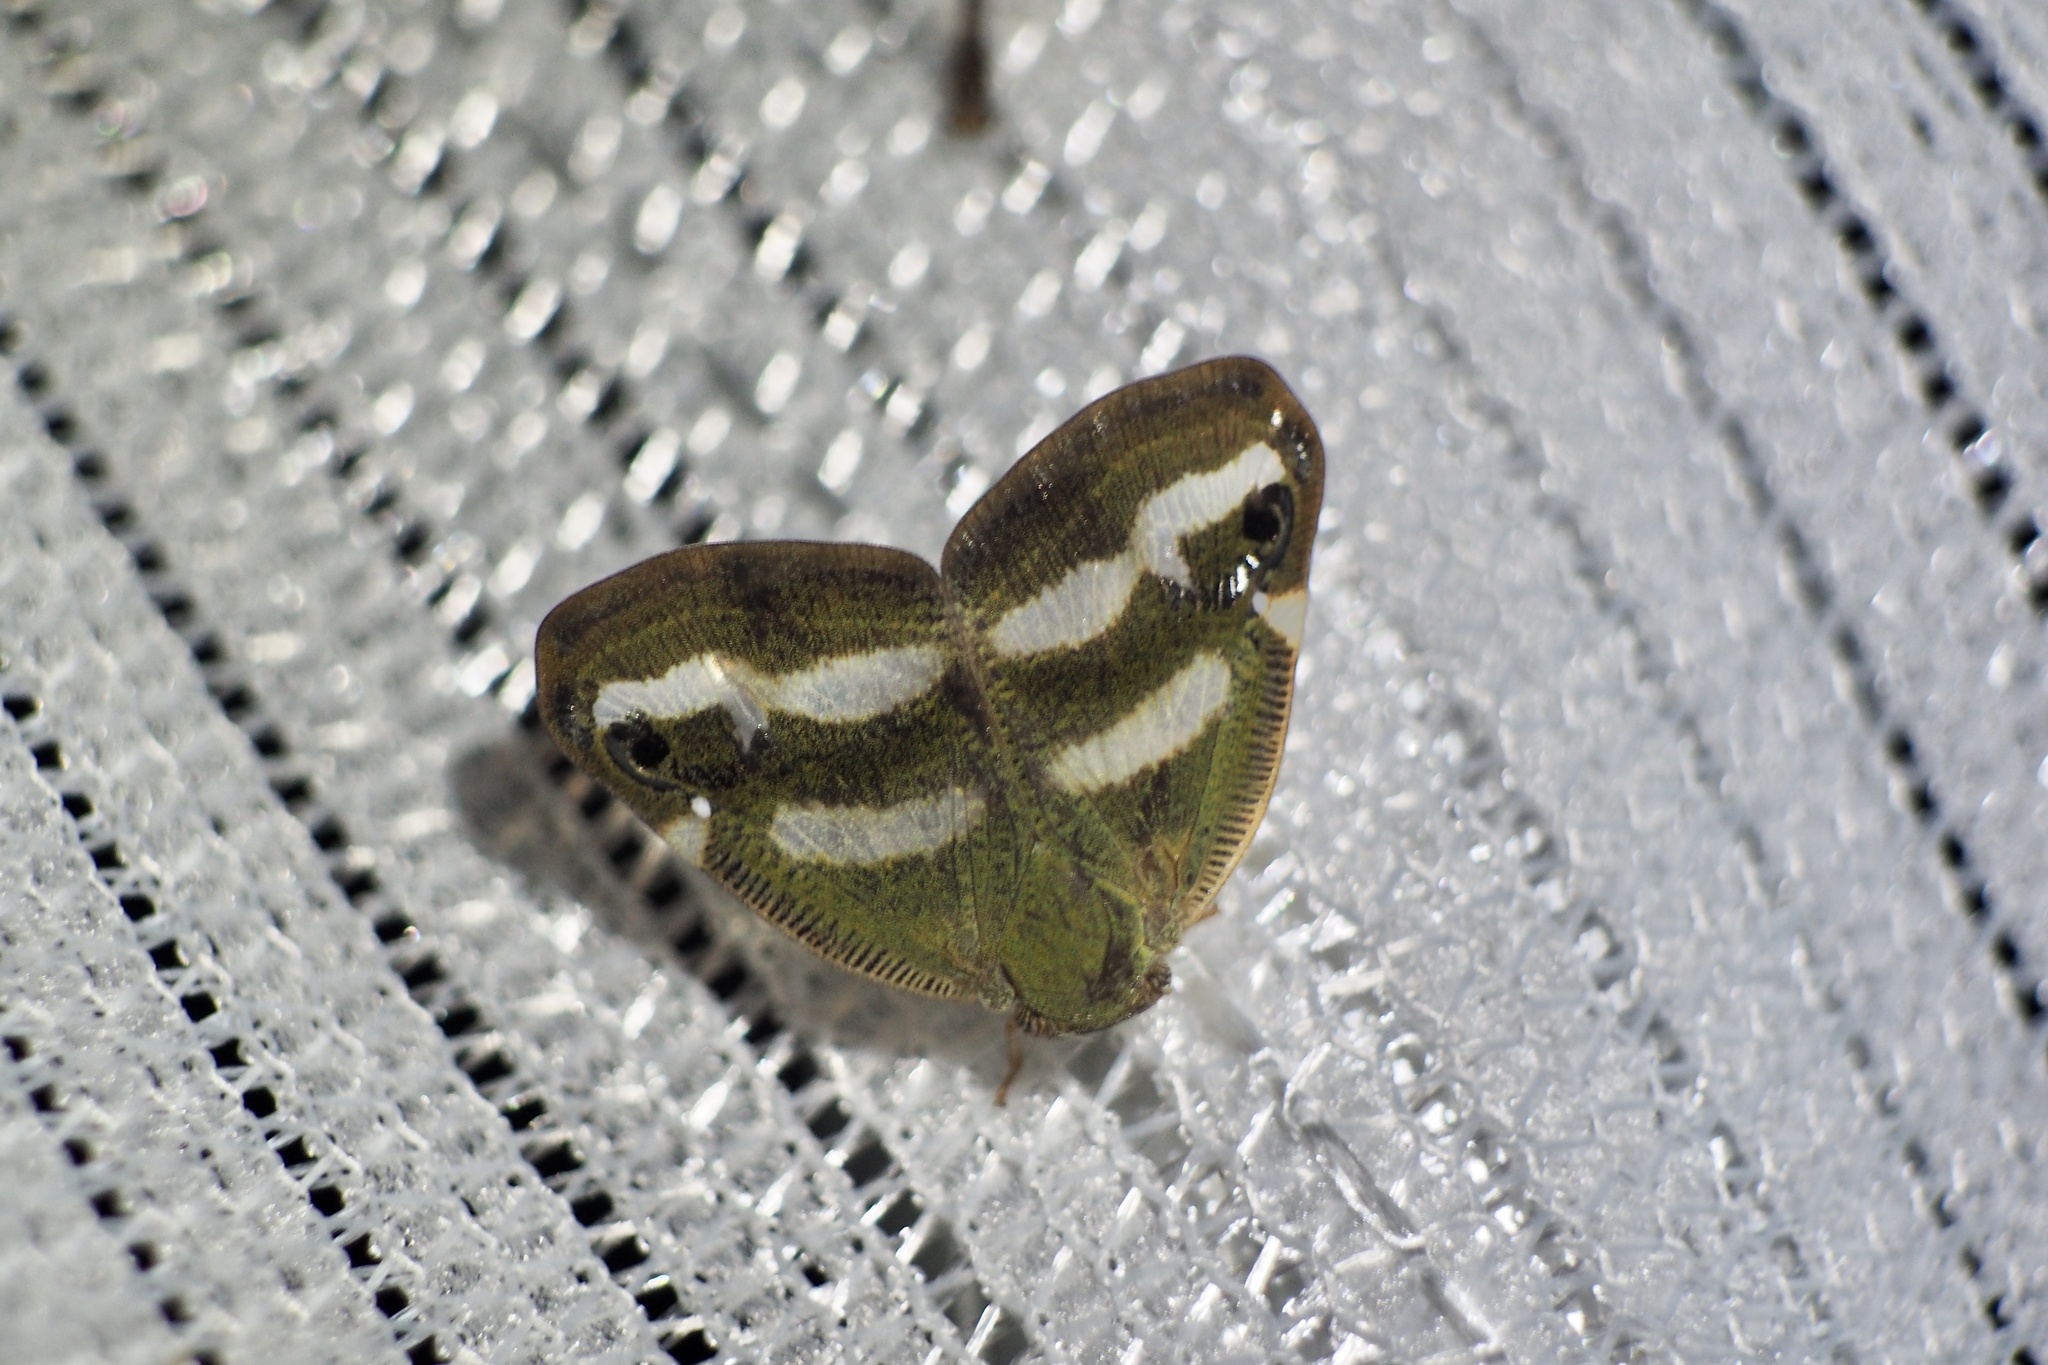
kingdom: Animalia
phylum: Arthropoda
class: Insecta
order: Hemiptera
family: Ricaniidae
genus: Orosanga
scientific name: Orosanga japonica
